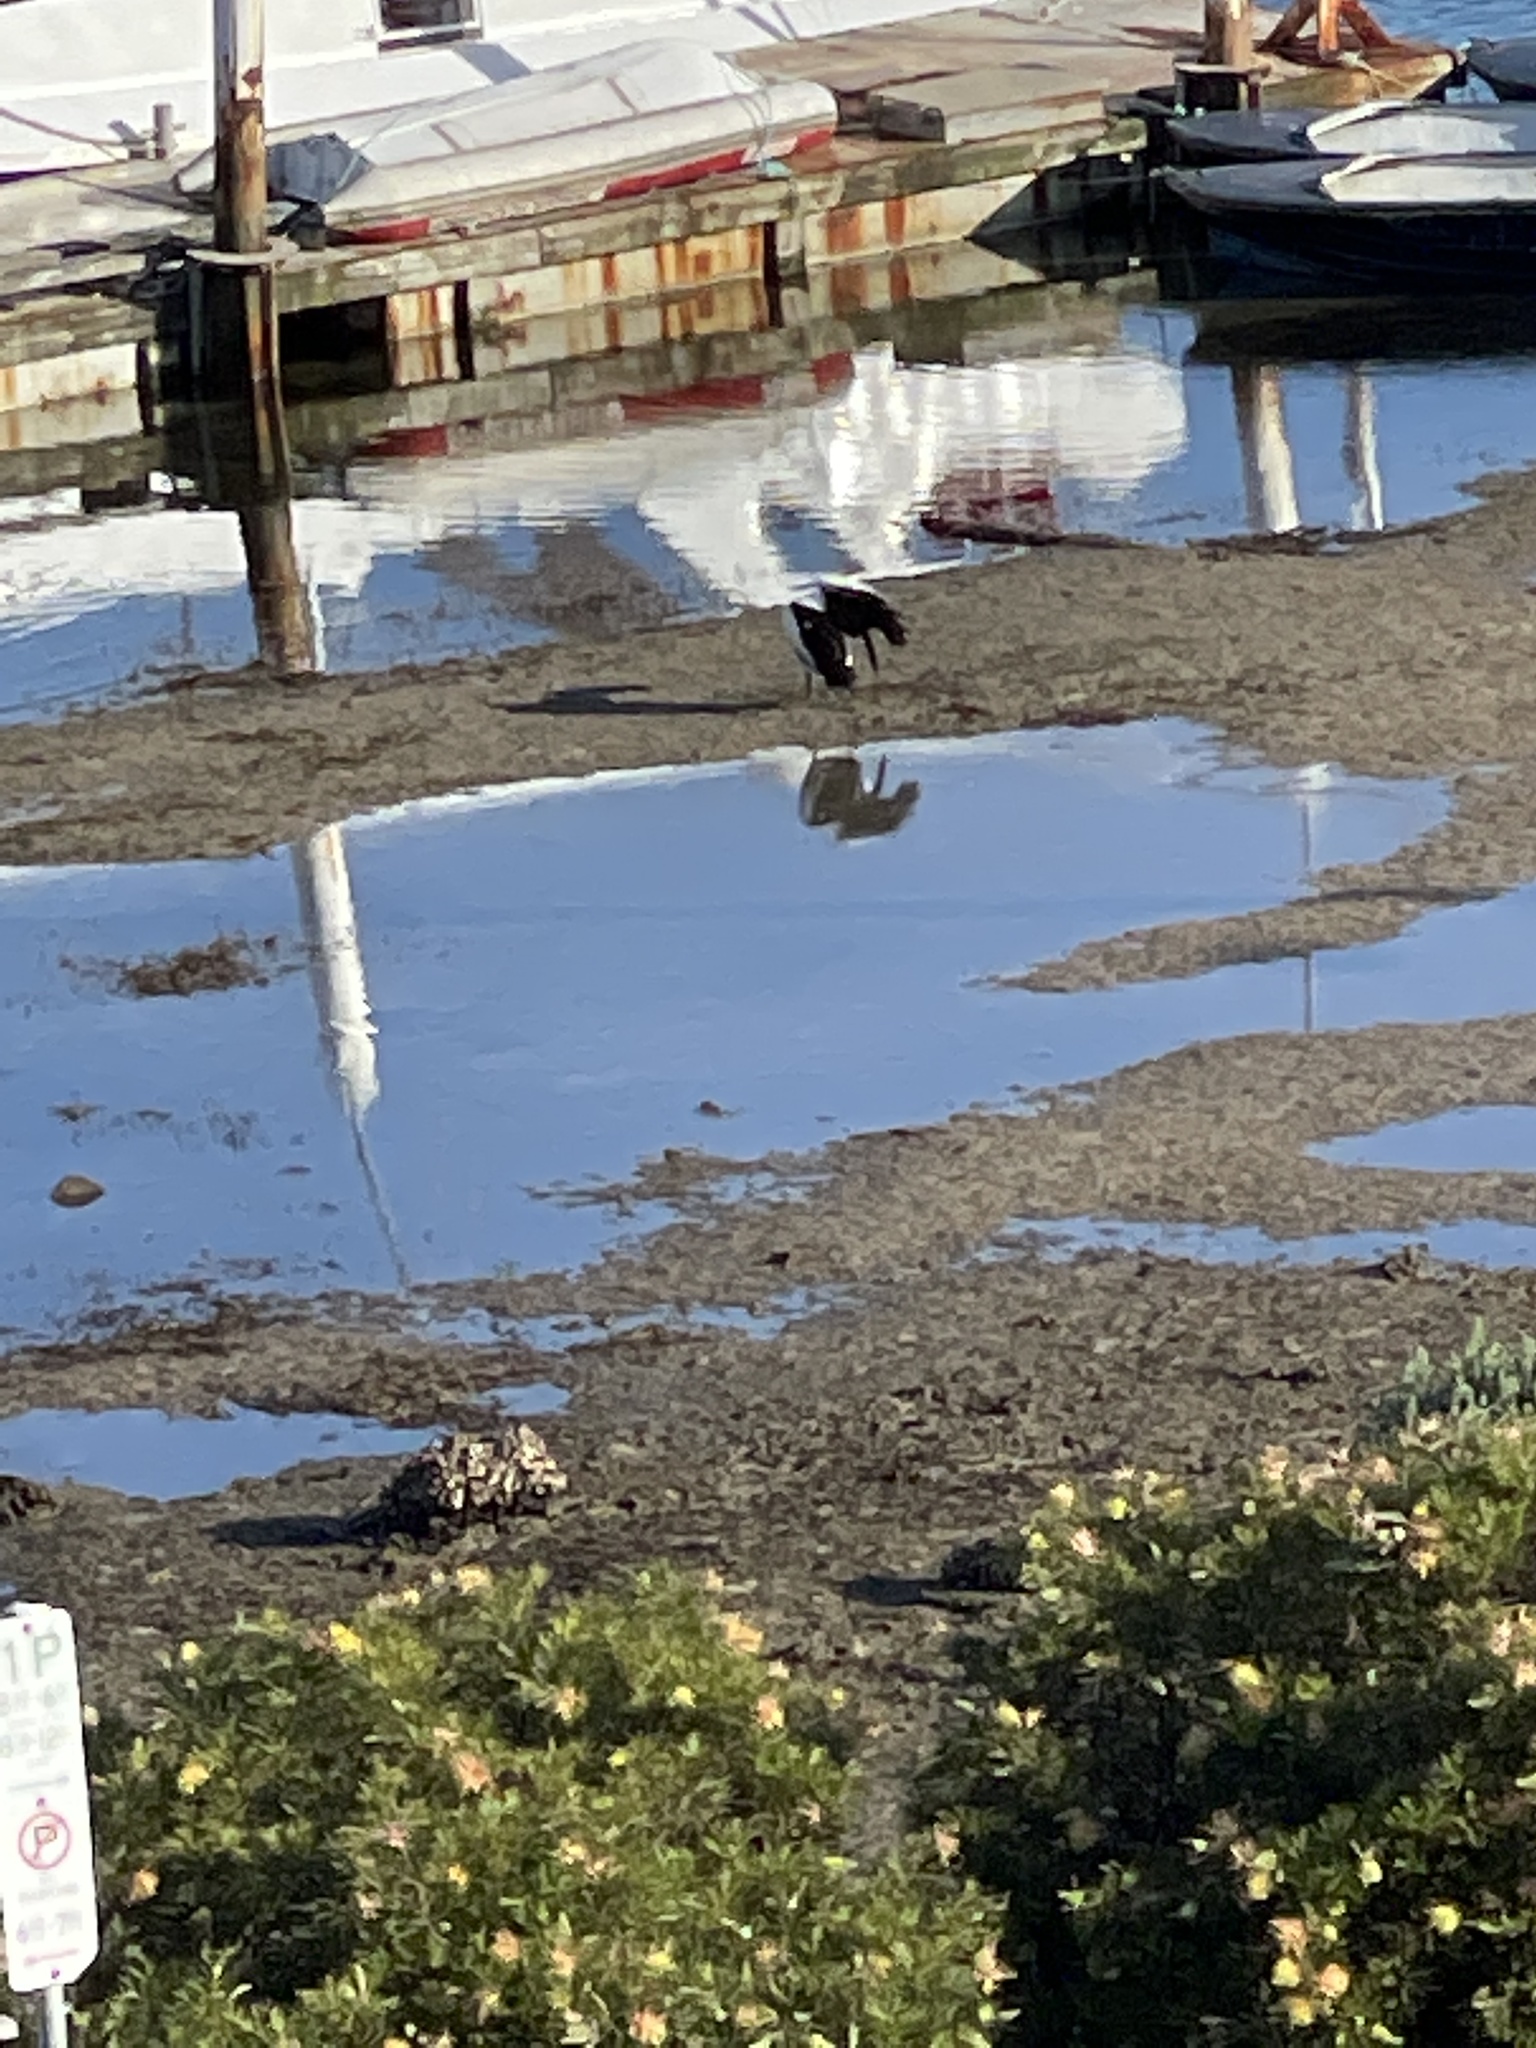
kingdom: Animalia
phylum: Chordata
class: Aves
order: Pelecaniformes
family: Pelecanidae
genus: Pelecanus
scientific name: Pelecanus conspicillatus
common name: Australian pelican
